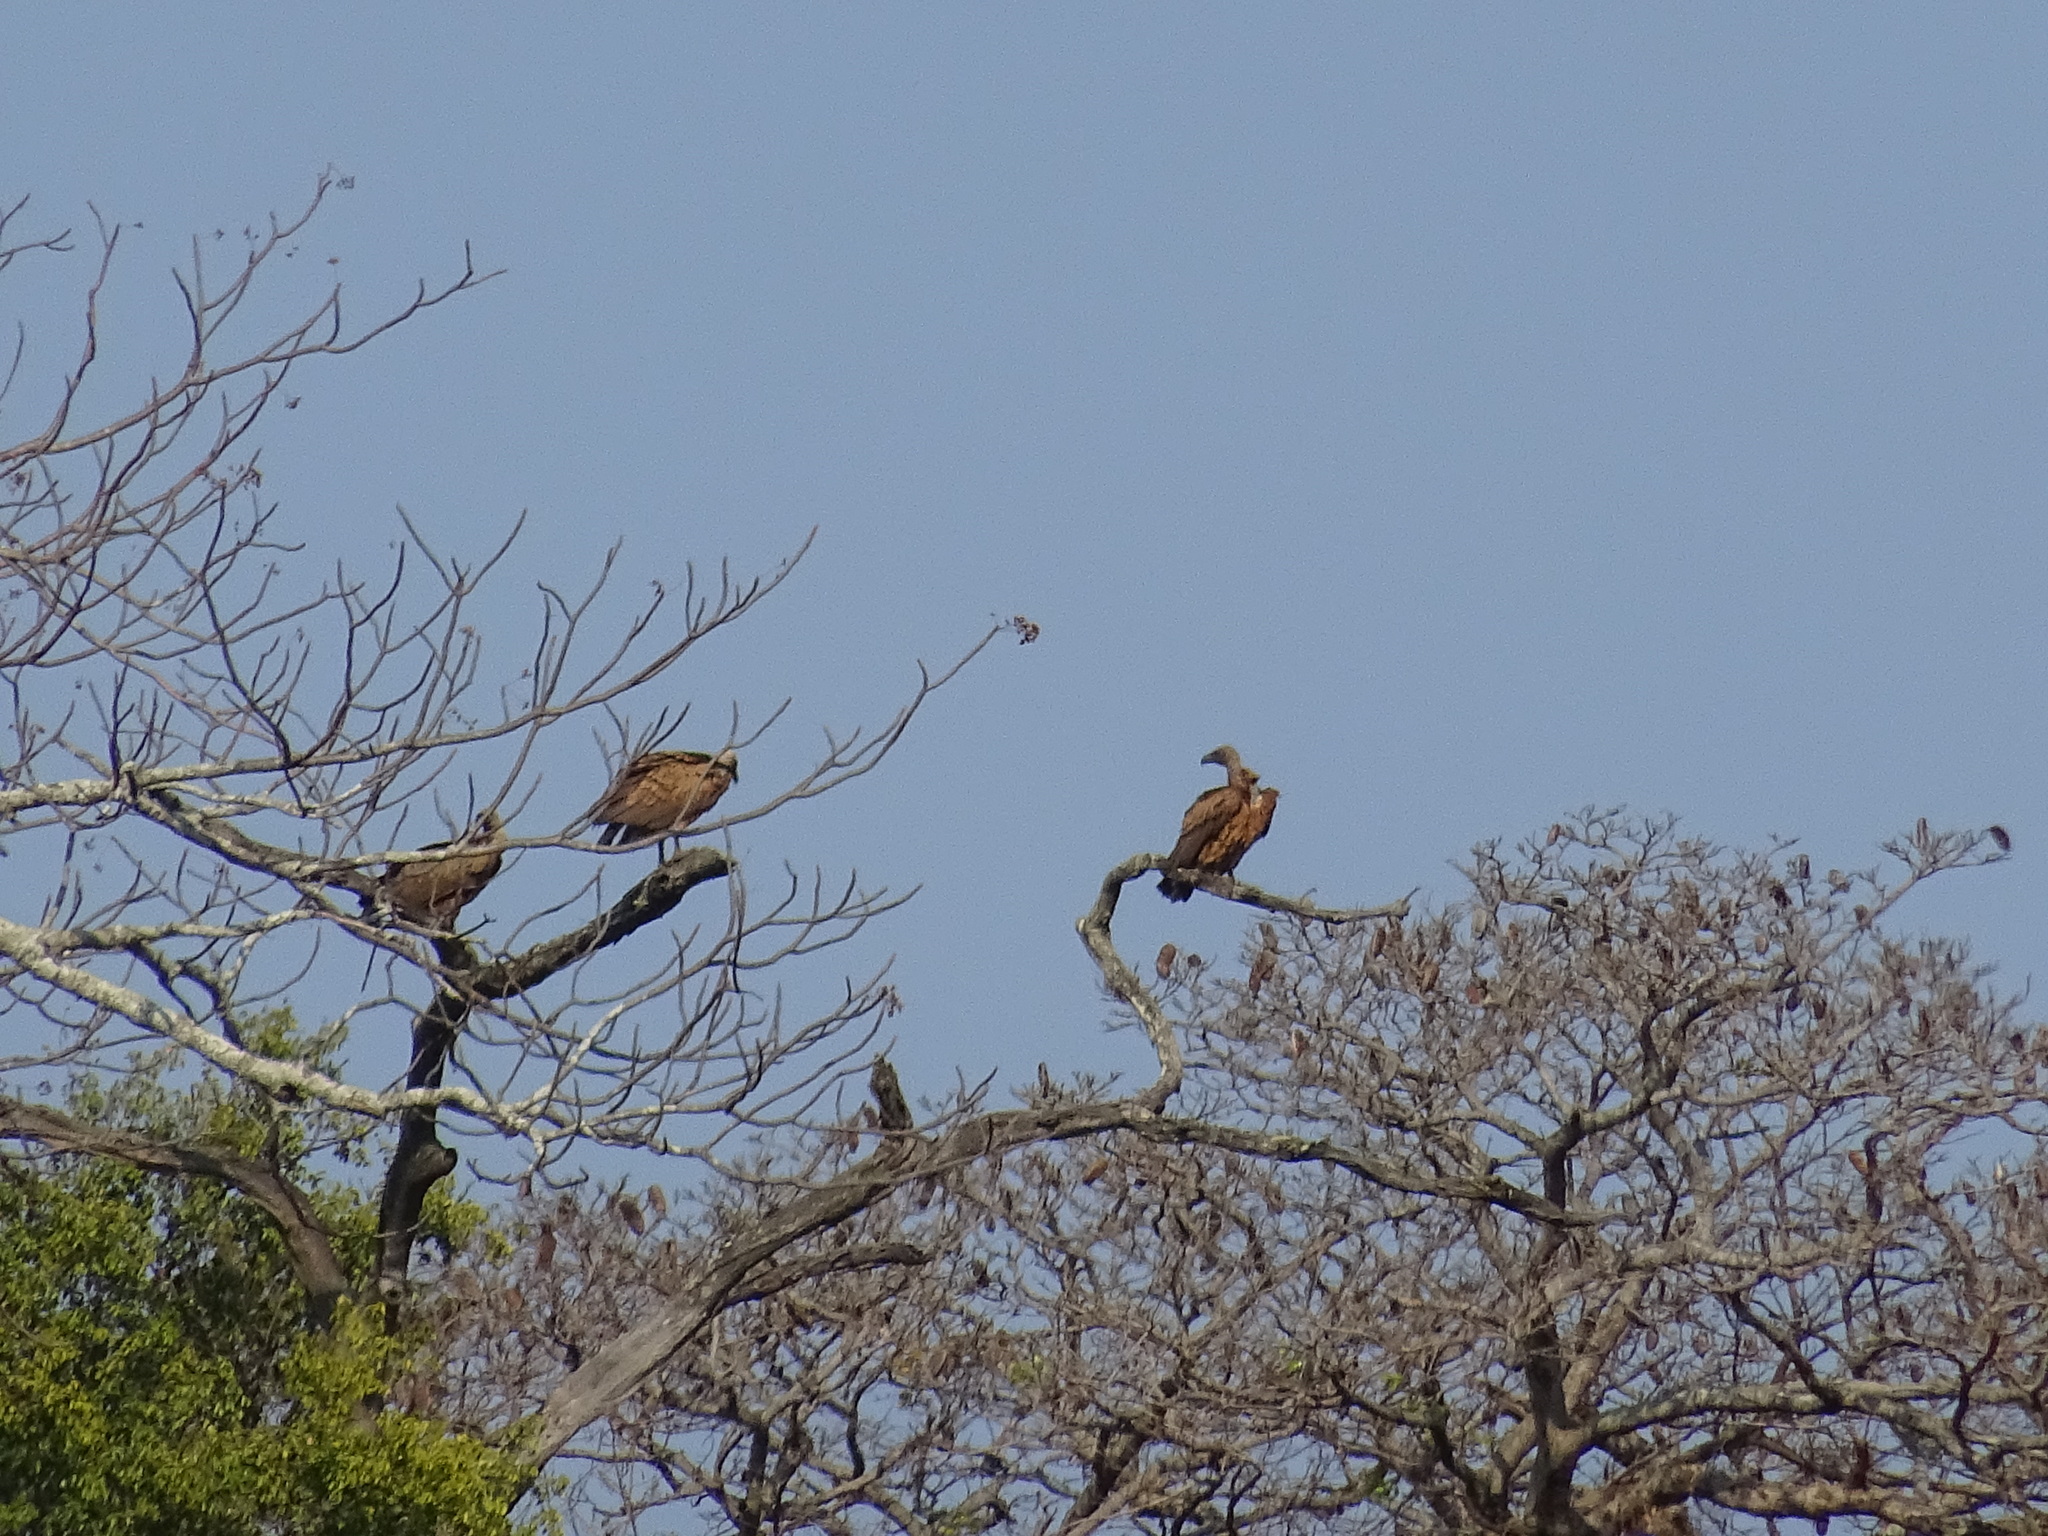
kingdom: Animalia
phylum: Chordata
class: Aves
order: Accipitriformes
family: Accipitridae
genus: Gyps
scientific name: Gyps africanus
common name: White-backed vulture
